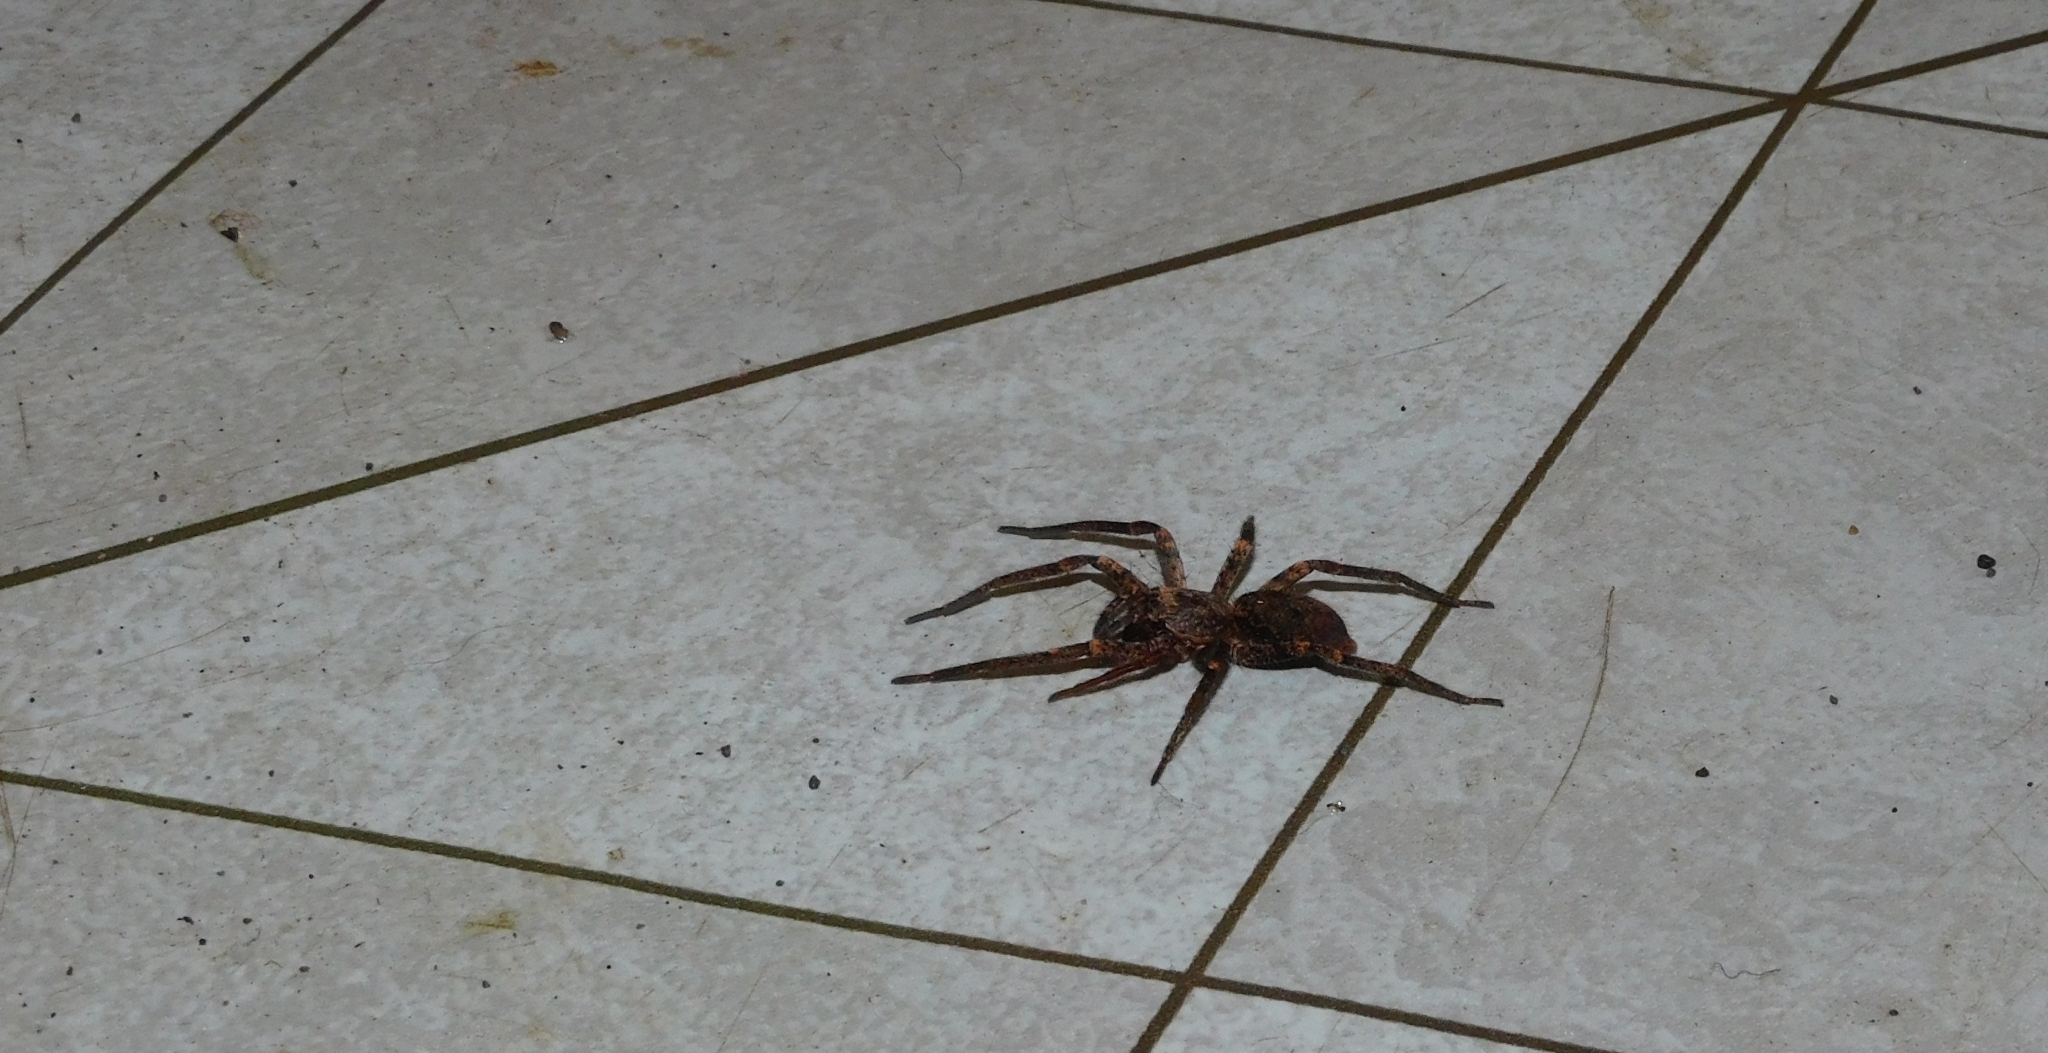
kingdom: Animalia
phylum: Arthropoda
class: Arachnida
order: Araneae
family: Anyphaenidae
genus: Tomopisthes
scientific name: Tomopisthes horrendus
